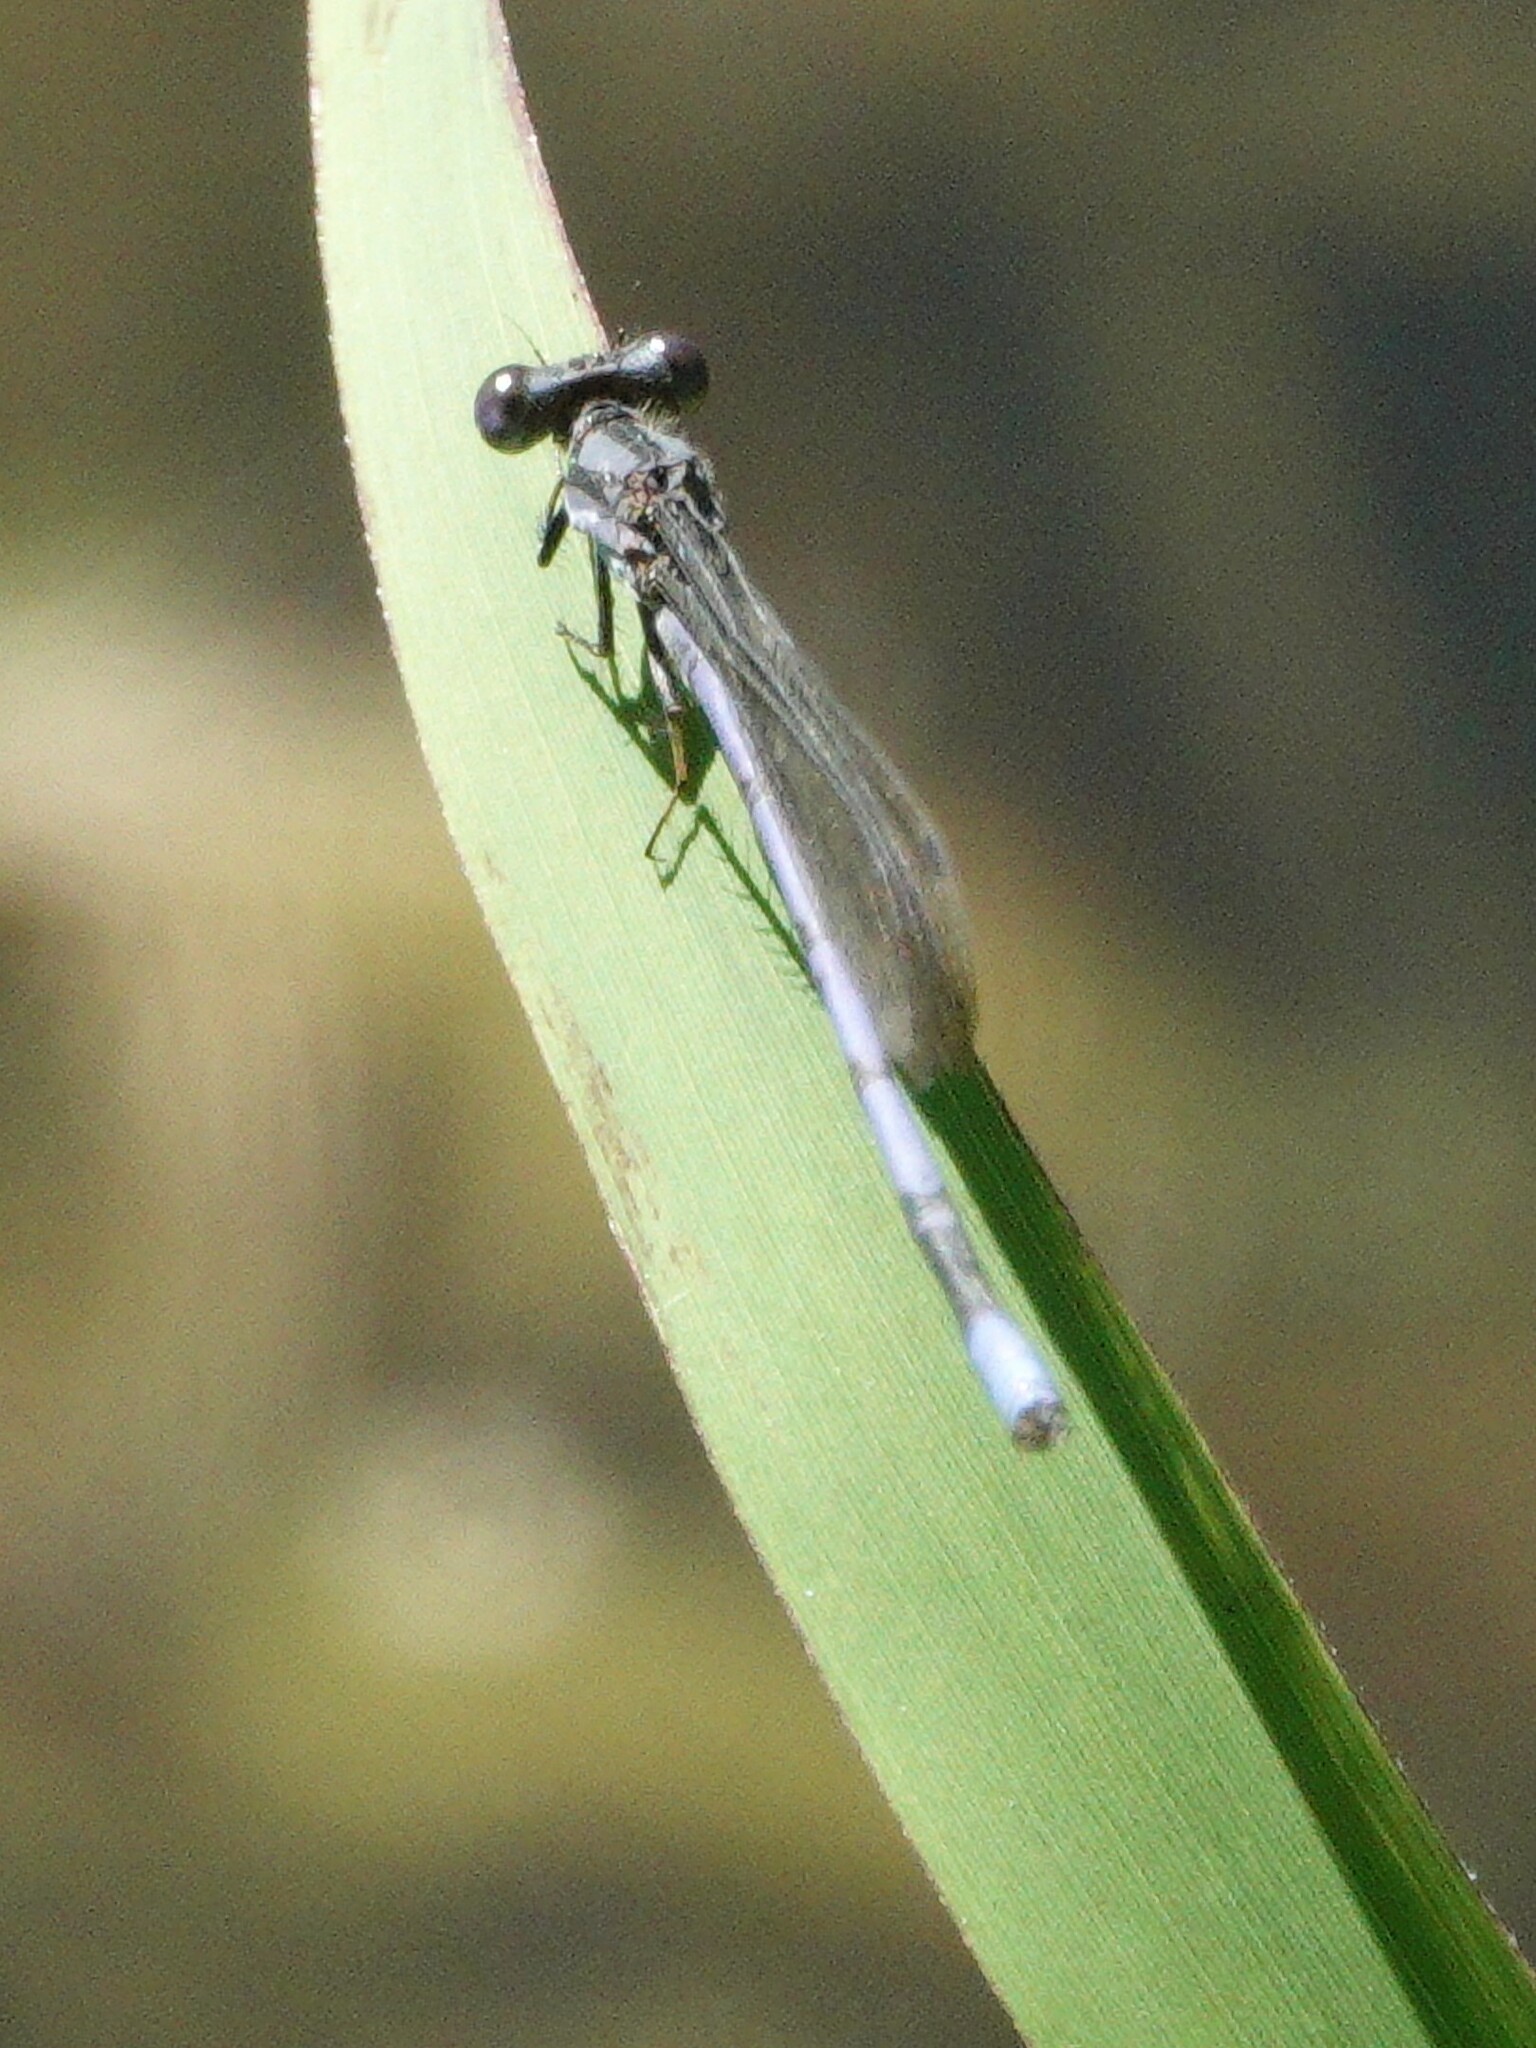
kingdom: Animalia
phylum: Arthropoda
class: Insecta
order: Odonata
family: Coenagrionidae
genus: Argia
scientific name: Argia fumipennis
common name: Variable dancer
